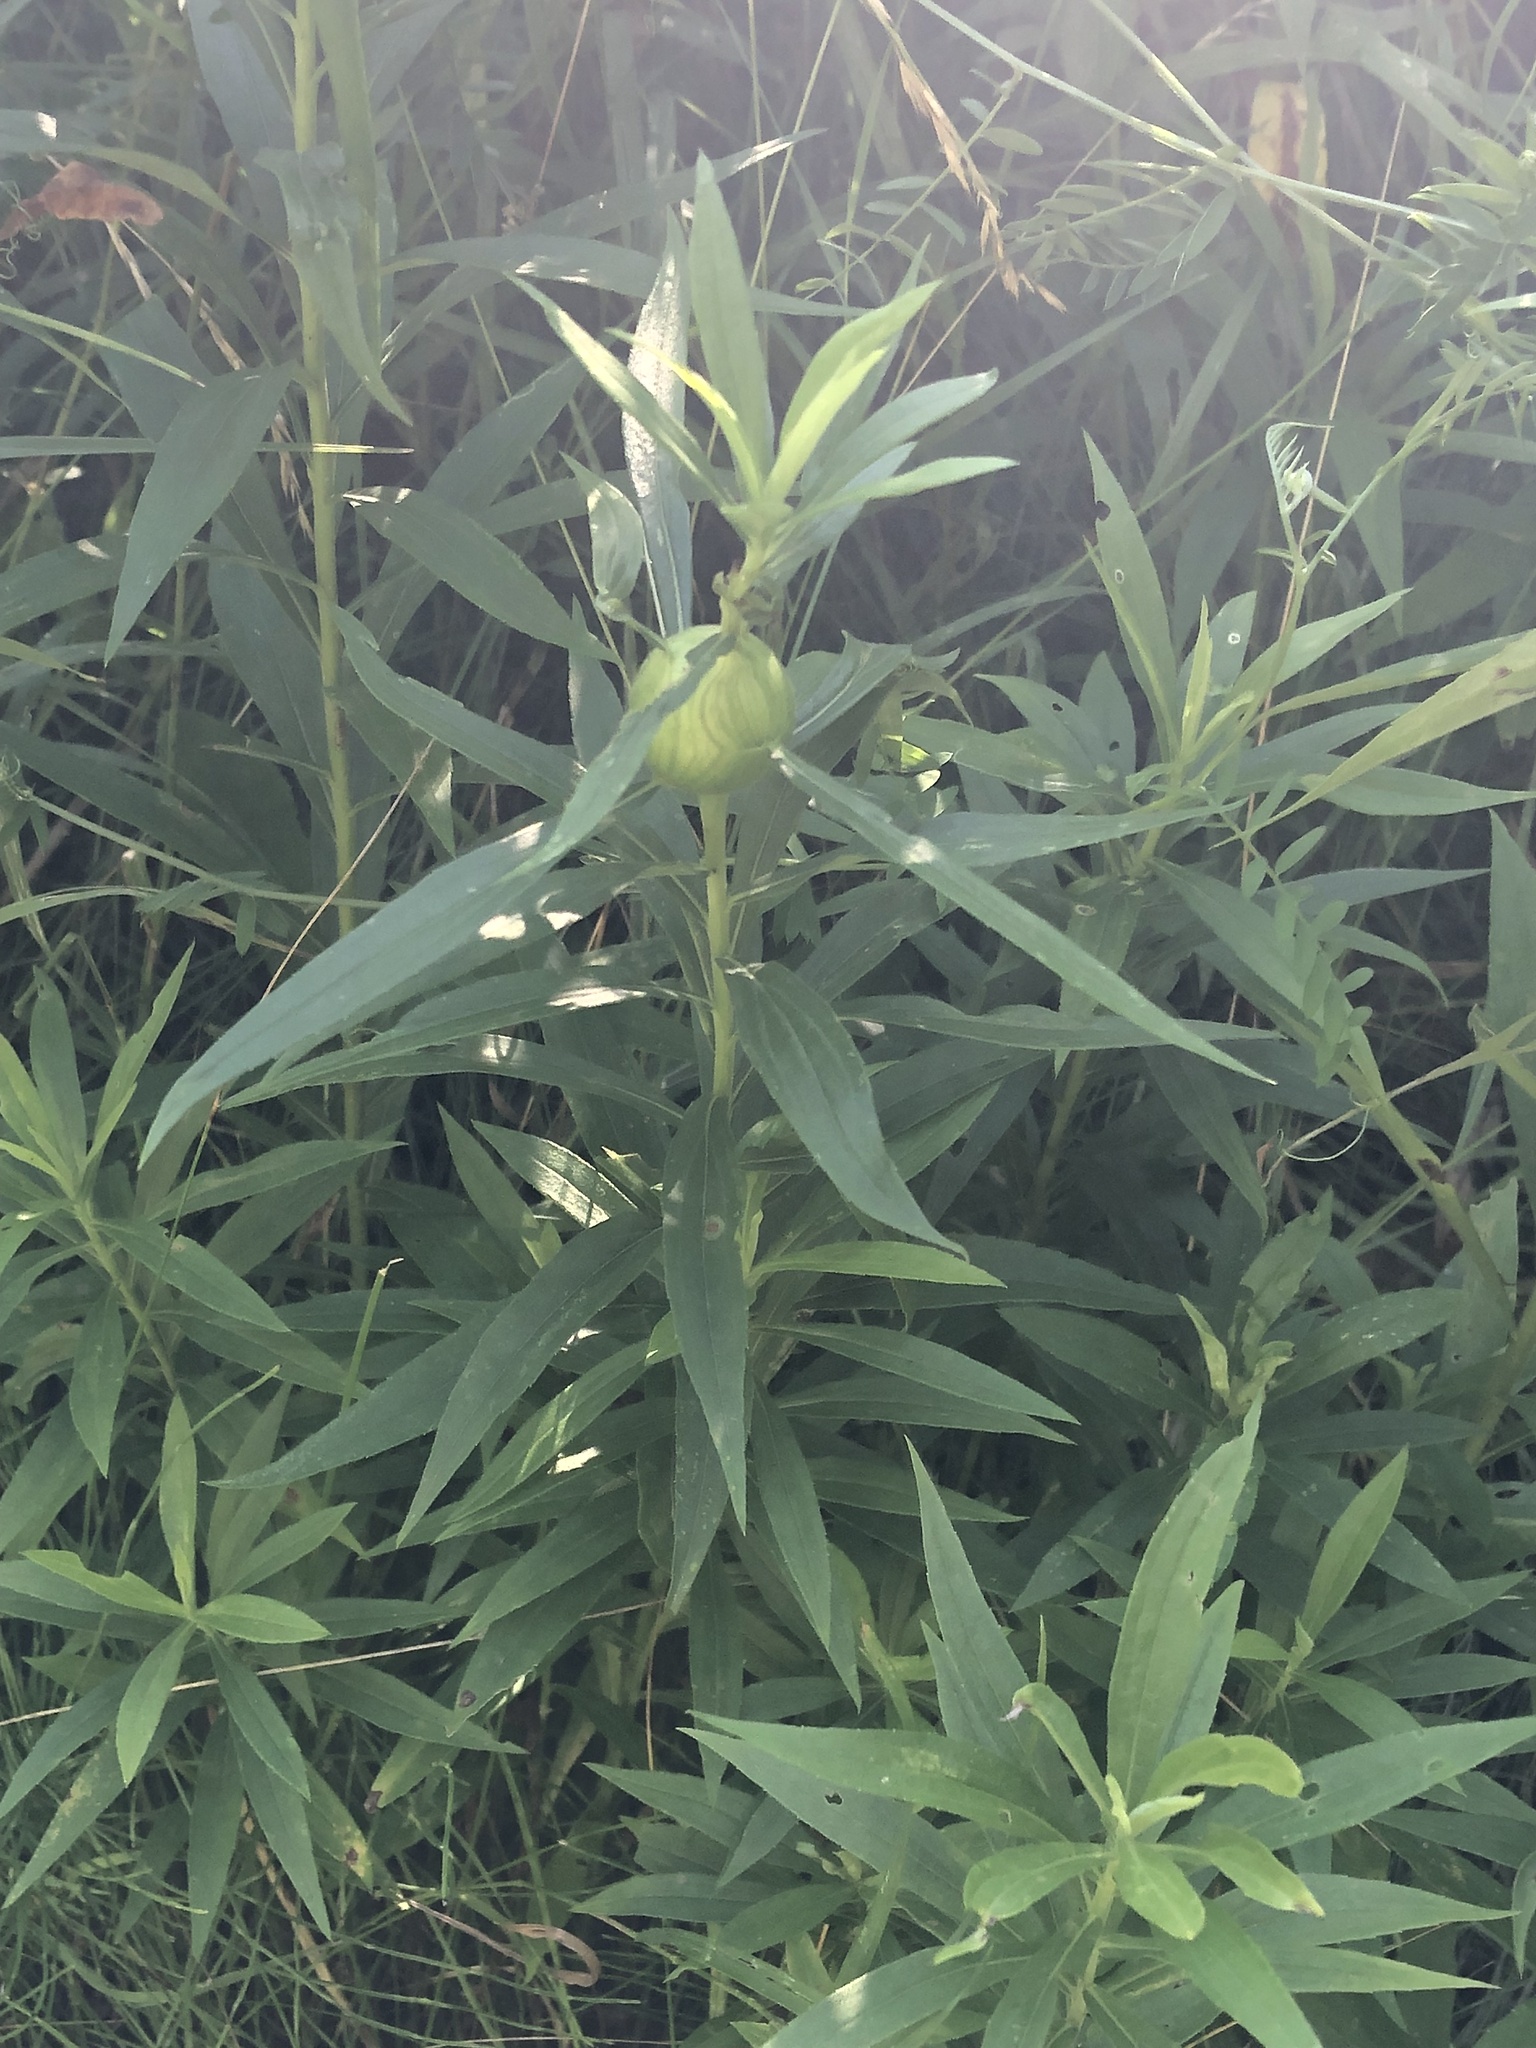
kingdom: Plantae
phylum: Tracheophyta
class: Magnoliopsida
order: Asterales
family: Asteraceae
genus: Solidago
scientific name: Solidago altissima
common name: Late goldenrod
